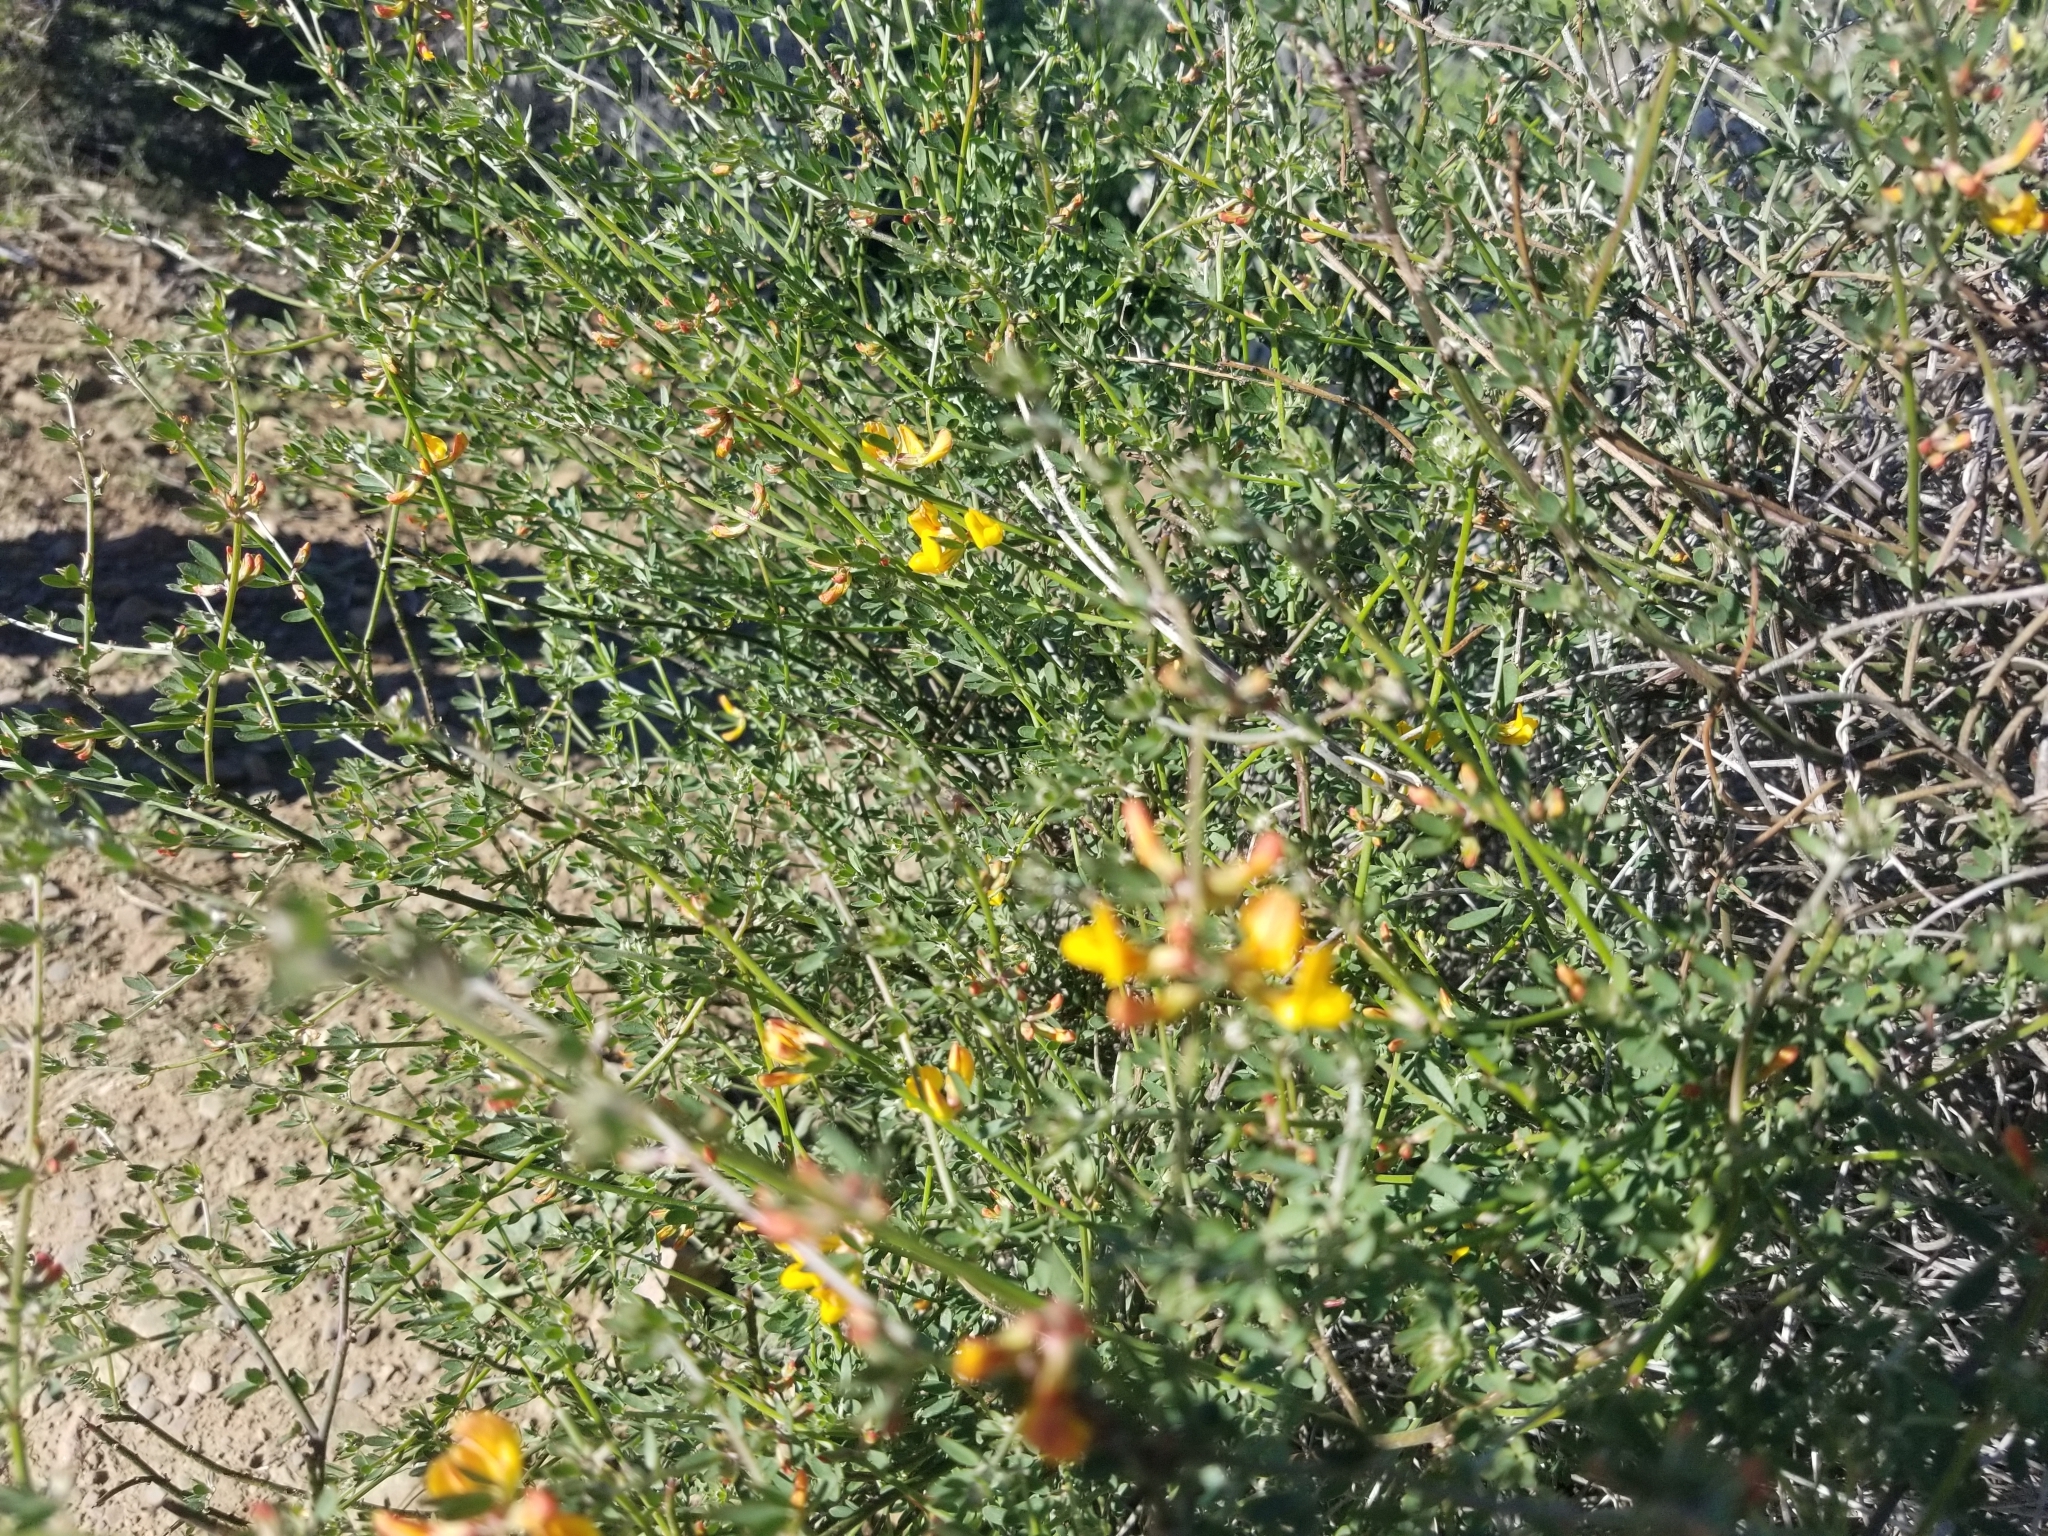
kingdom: Plantae
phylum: Tracheophyta
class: Magnoliopsida
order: Fabales
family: Fabaceae
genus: Acmispon
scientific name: Acmispon glaber
